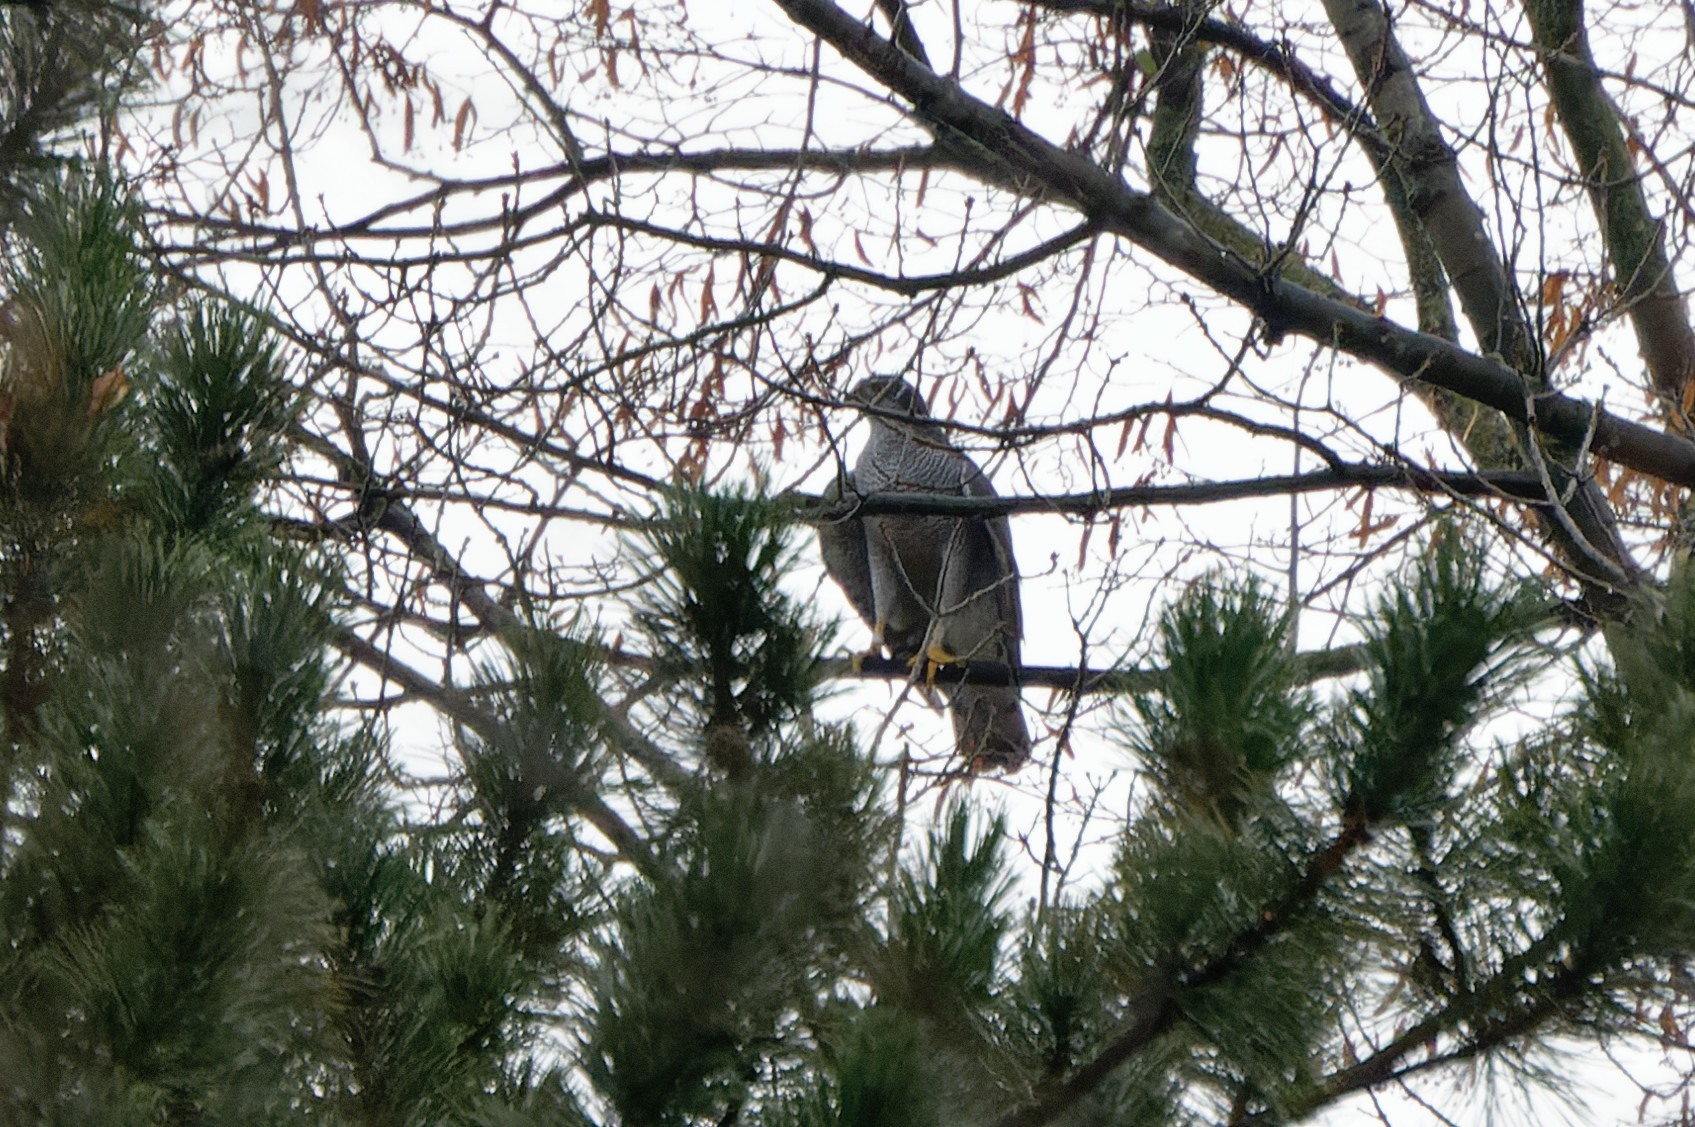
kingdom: Animalia
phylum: Chordata
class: Aves
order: Accipitriformes
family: Accipitridae
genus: Accipiter
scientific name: Accipiter gentilis
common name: Northern goshawk
